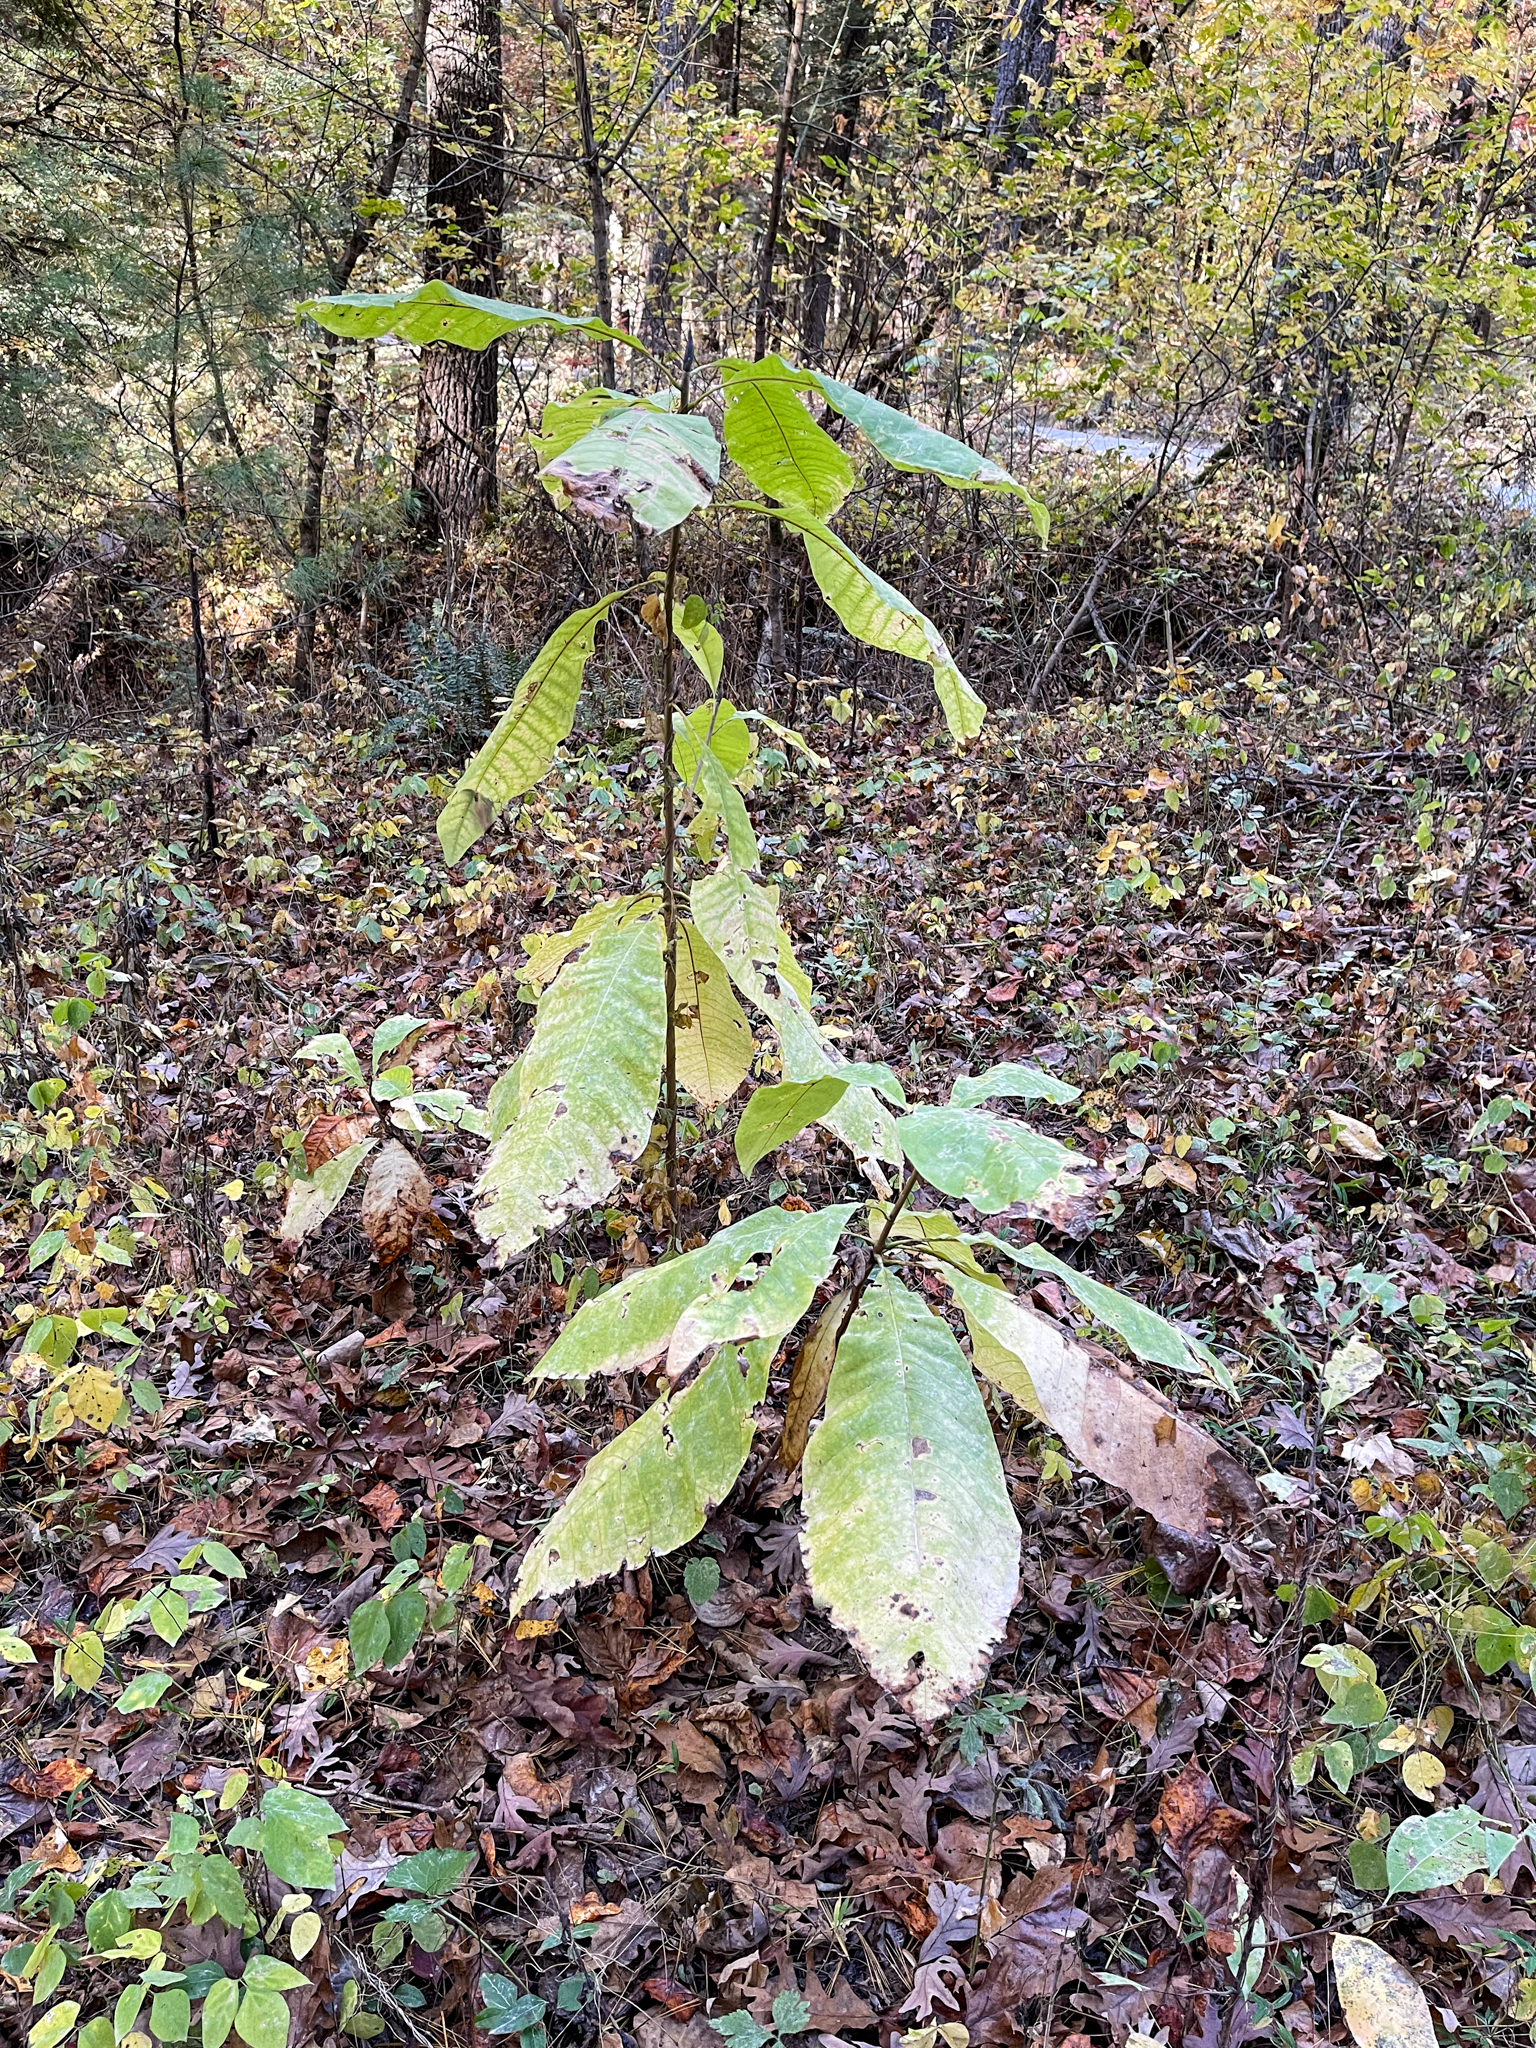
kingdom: Plantae
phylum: Tracheophyta
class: Magnoliopsida
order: Magnoliales
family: Annonaceae
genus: Asimina
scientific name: Asimina triloba
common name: Dog-banana
